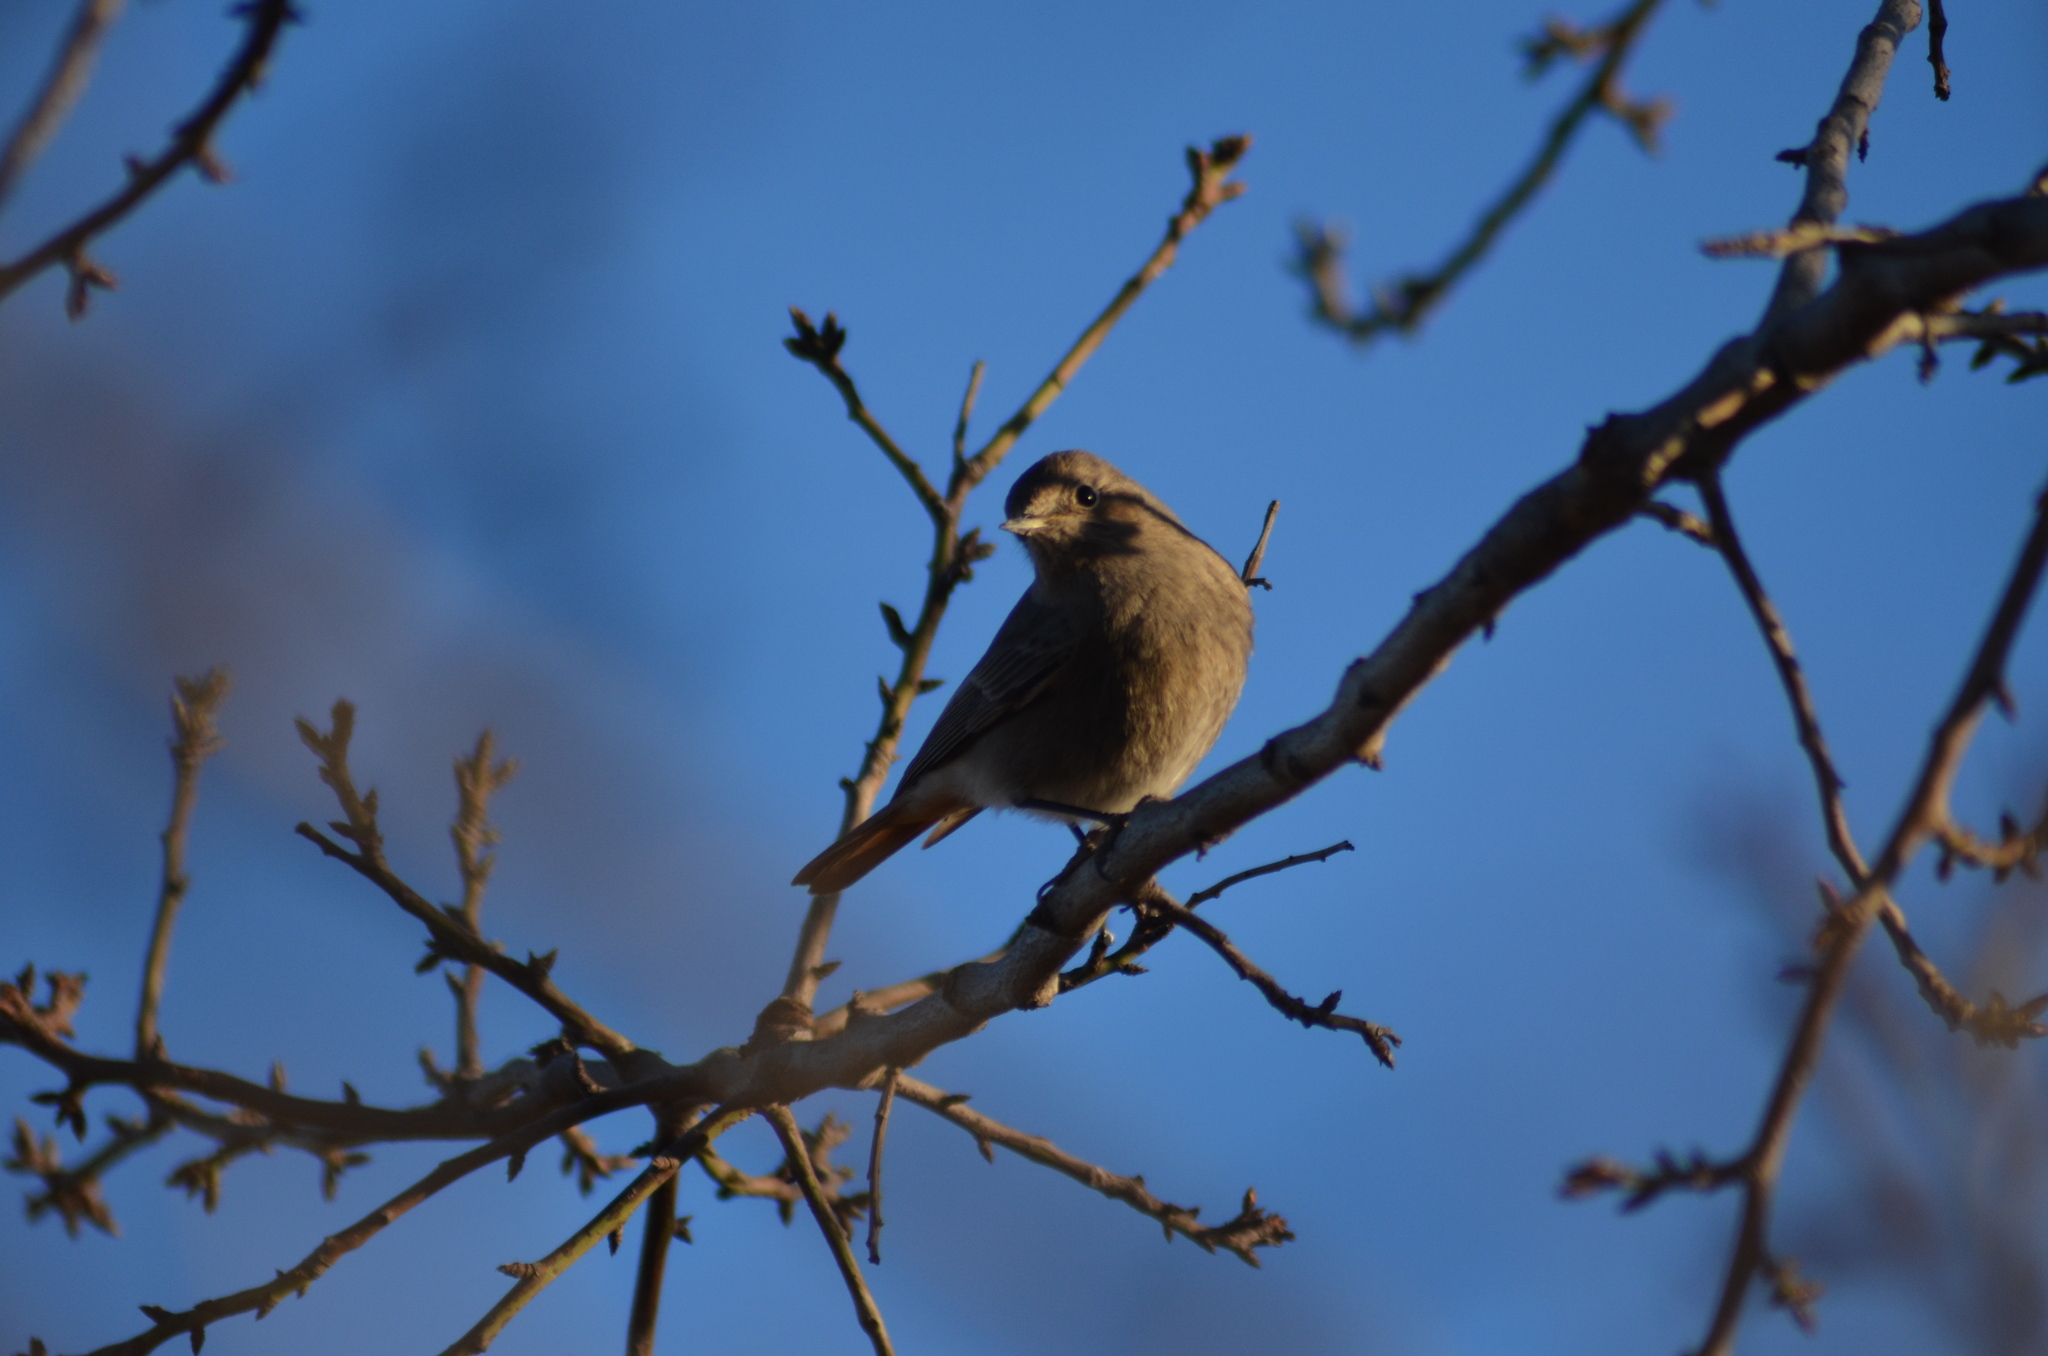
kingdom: Animalia
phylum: Chordata
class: Aves
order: Passeriformes
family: Muscicapidae
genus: Phoenicurus
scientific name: Phoenicurus ochruros
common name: Black redstart
